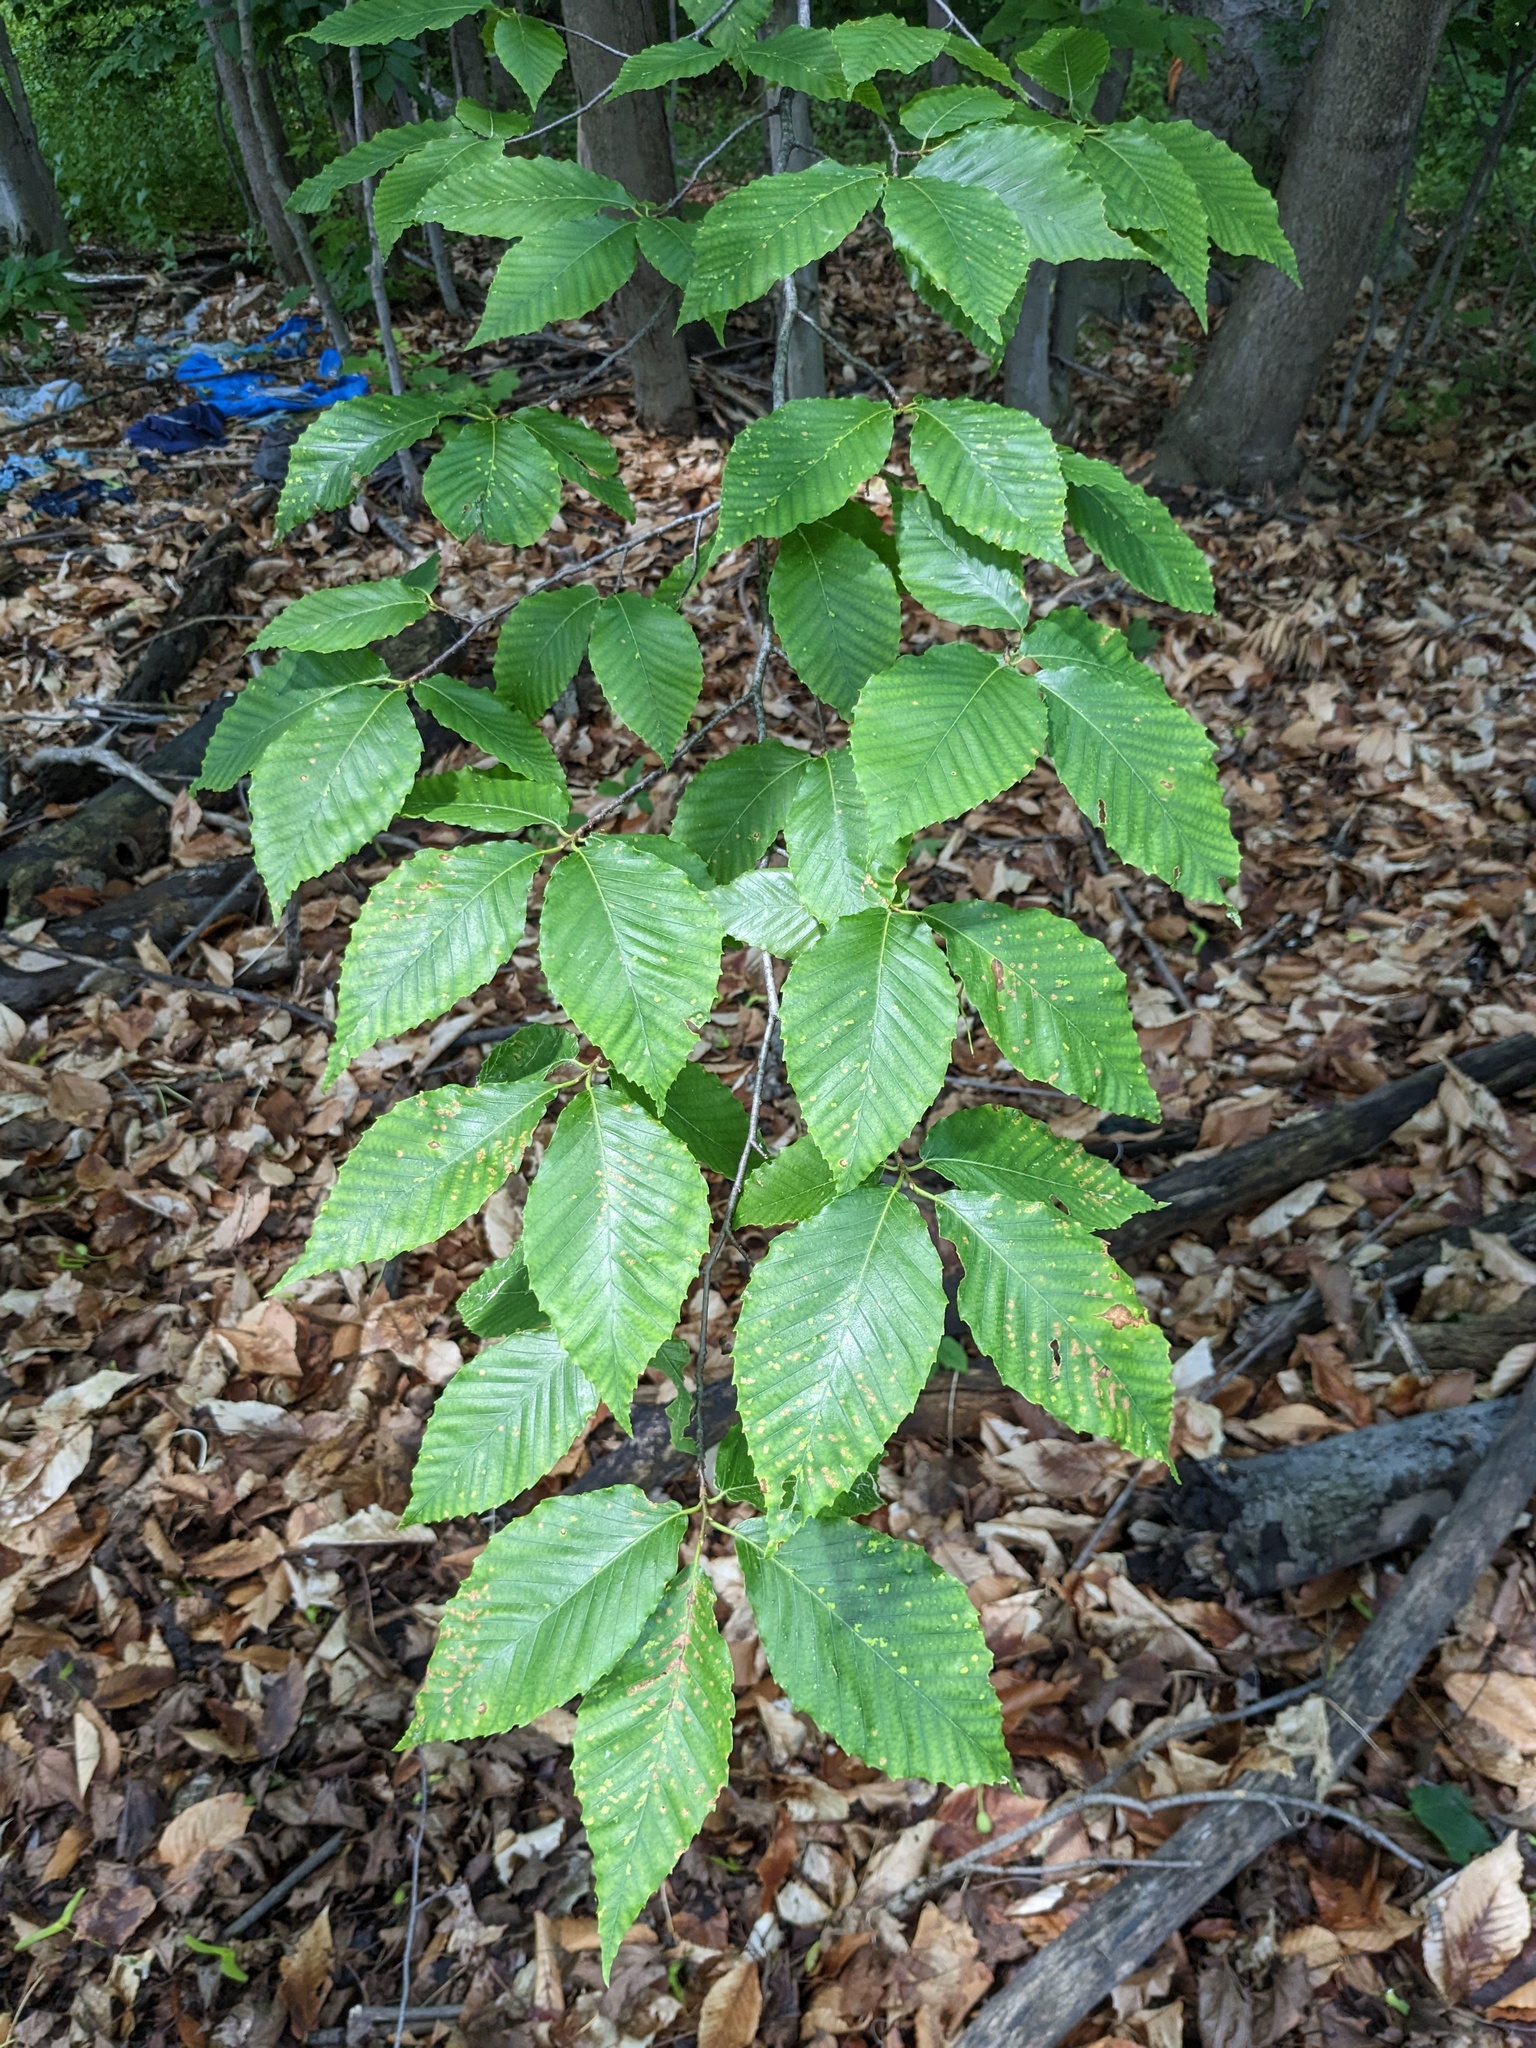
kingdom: Plantae
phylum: Tracheophyta
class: Magnoliopsida
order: Fagales
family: Fagaceae
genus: Fagus
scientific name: Fagus grandifolia
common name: American beech
